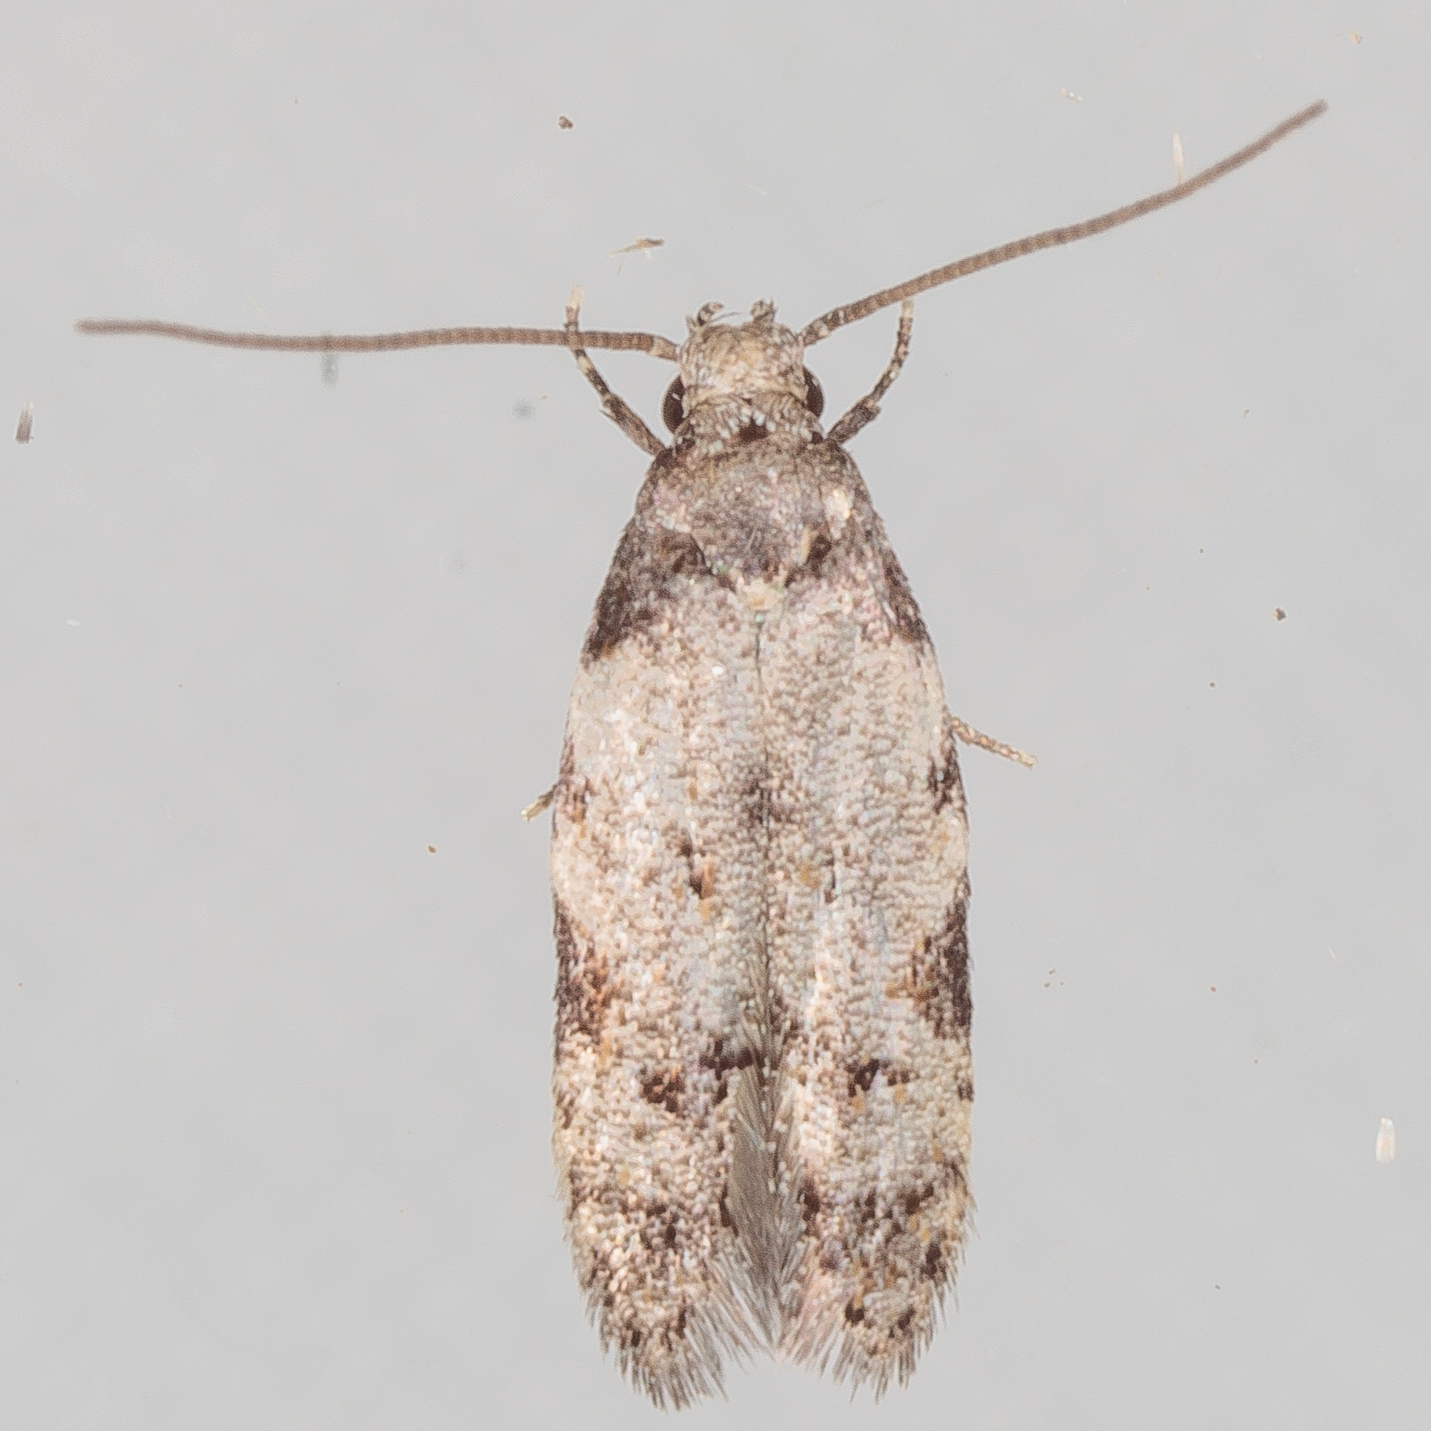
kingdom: Animalia
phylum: Arthropoda
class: Insecta
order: Lepidoptera
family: Autostichidae
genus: Taygete
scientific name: Taygete attributella
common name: Triangle-marked twirler moth
